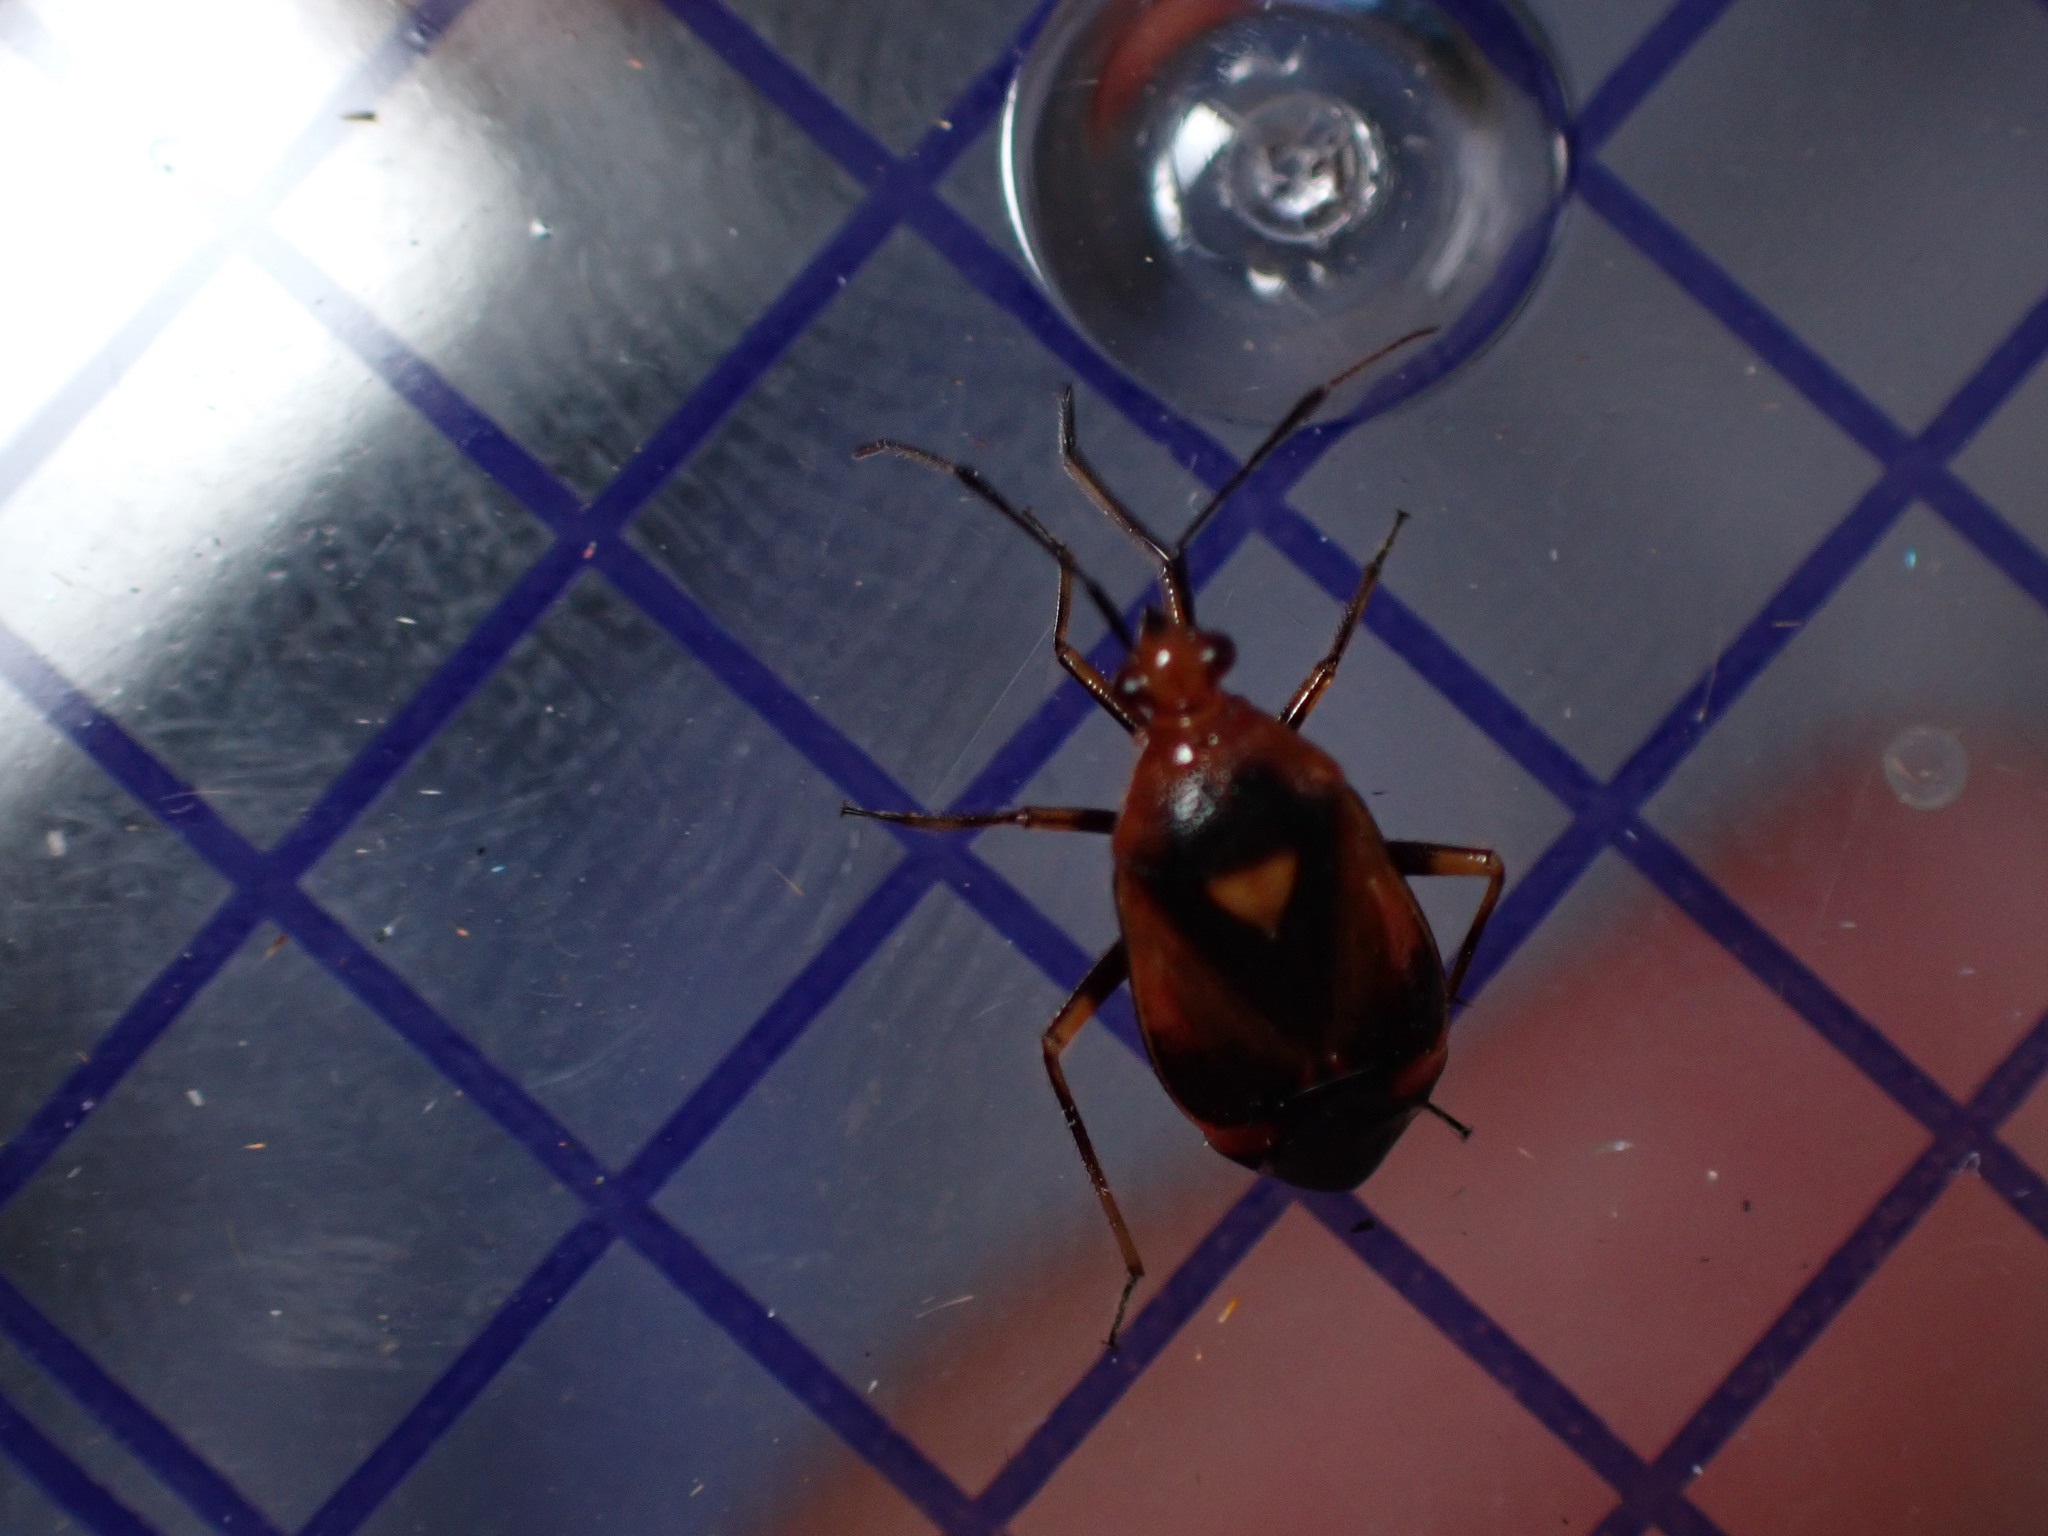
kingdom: Animalia
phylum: Arthropoda
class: Insecta
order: Hemiptera
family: Miridae
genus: Deraeocoris
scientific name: Deraeocoris ruber
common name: Plant bug
